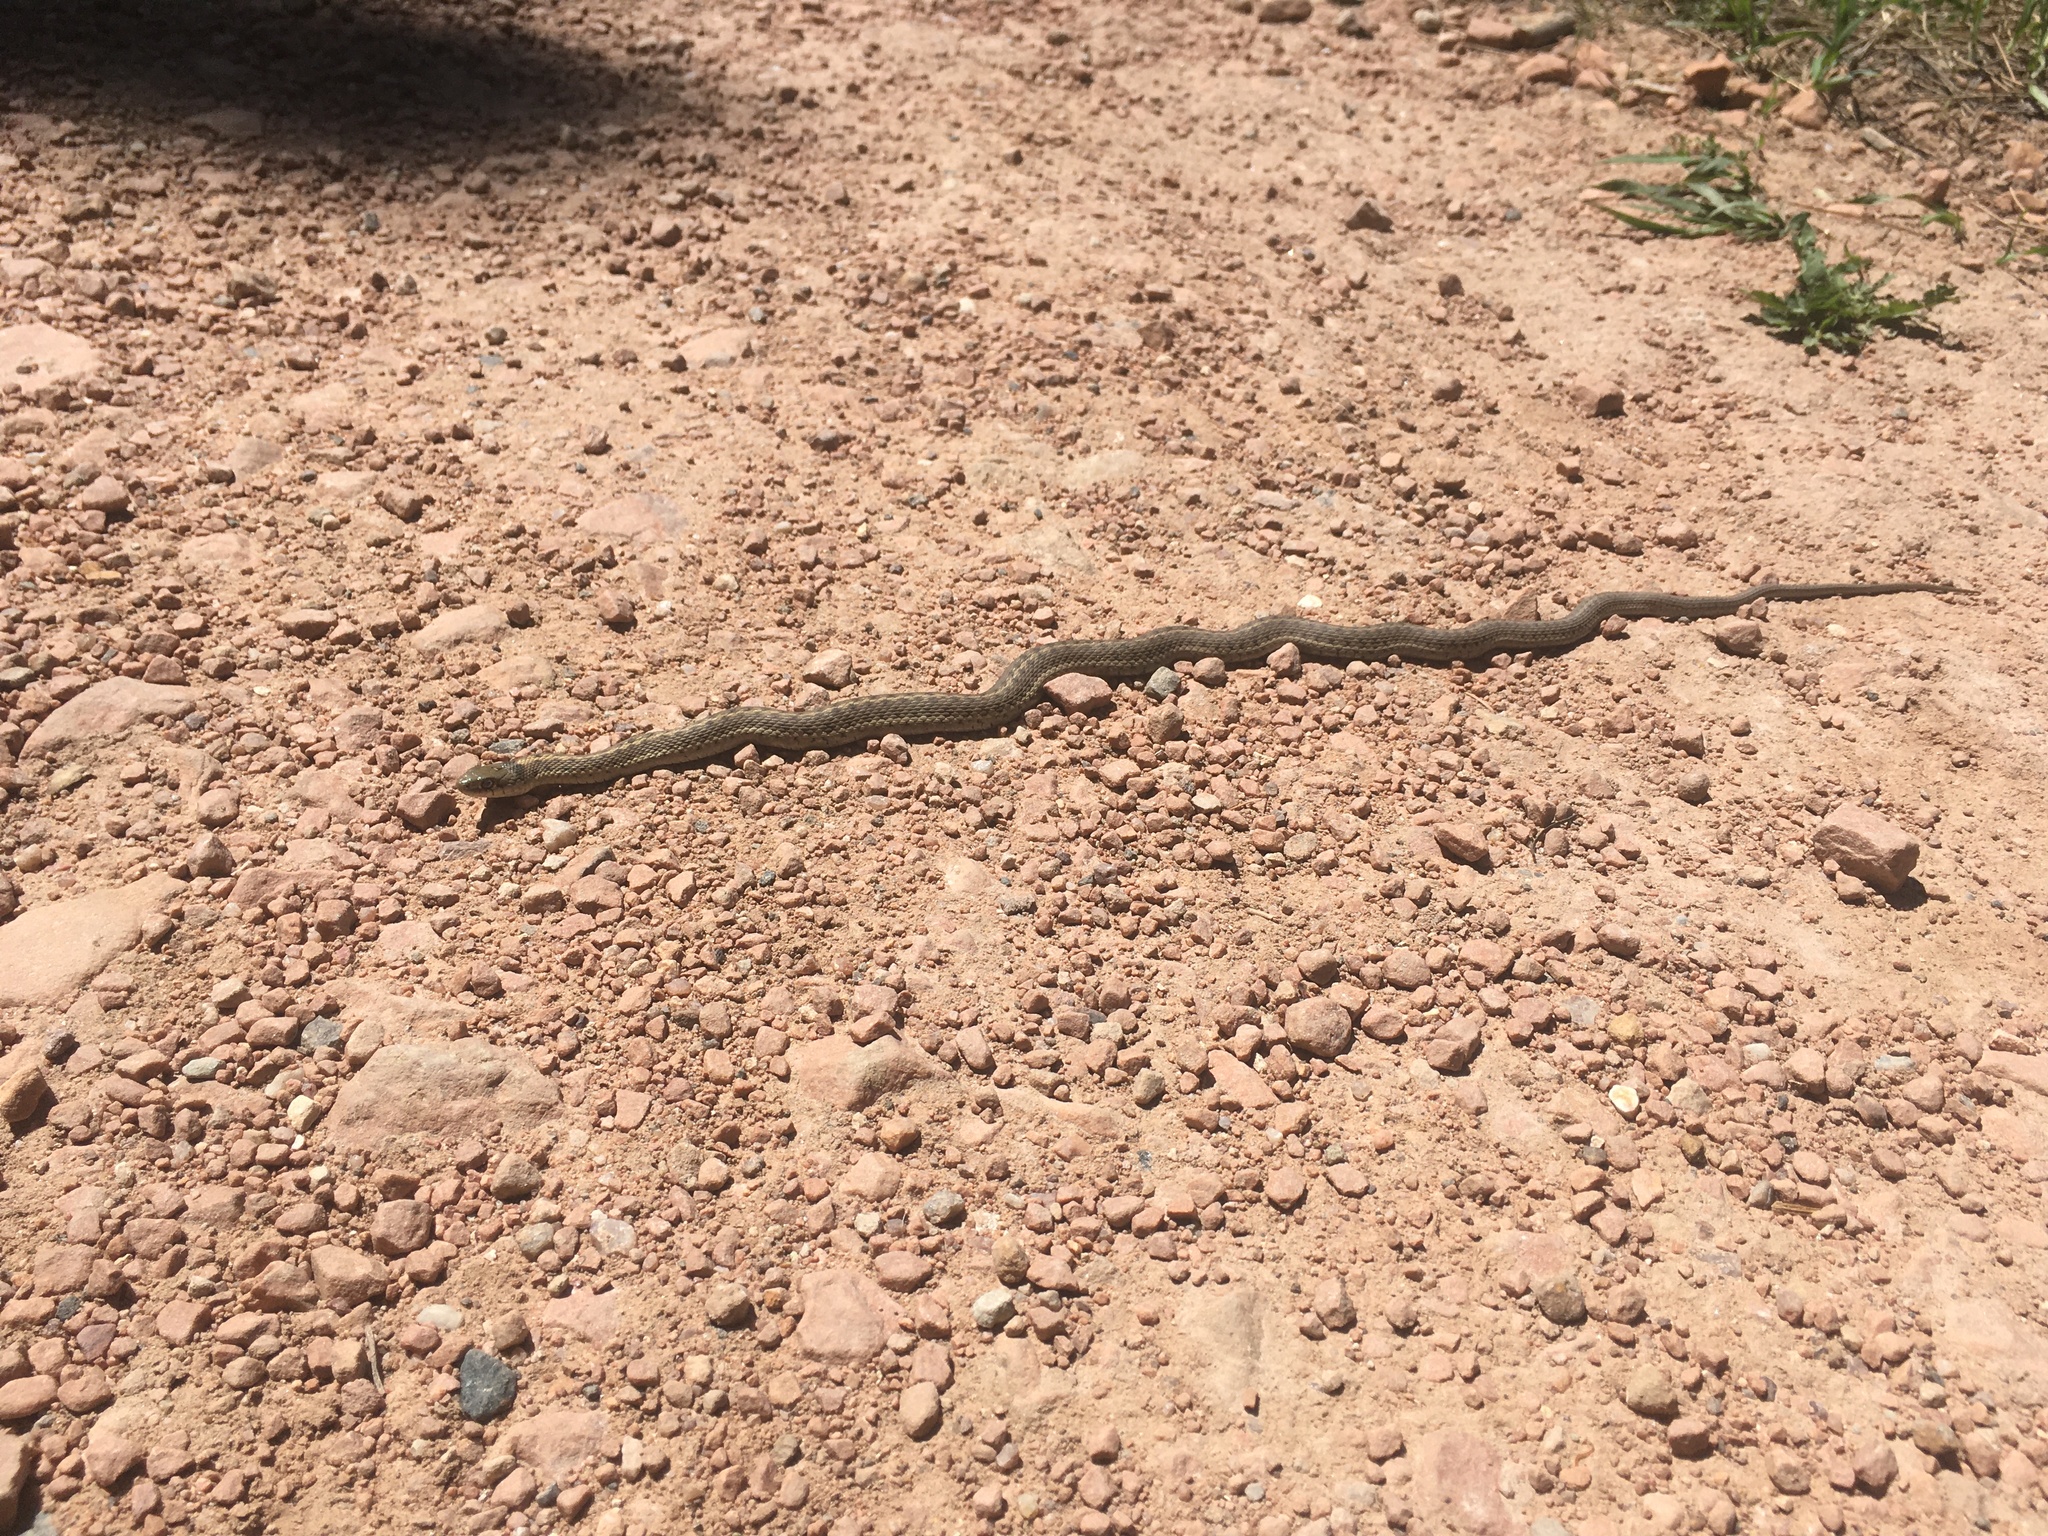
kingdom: Animalia
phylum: Chordata
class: Squamata
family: Colubridae
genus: Thamnophis
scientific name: Thamnophis elegans
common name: Western terrestrial garter snake
